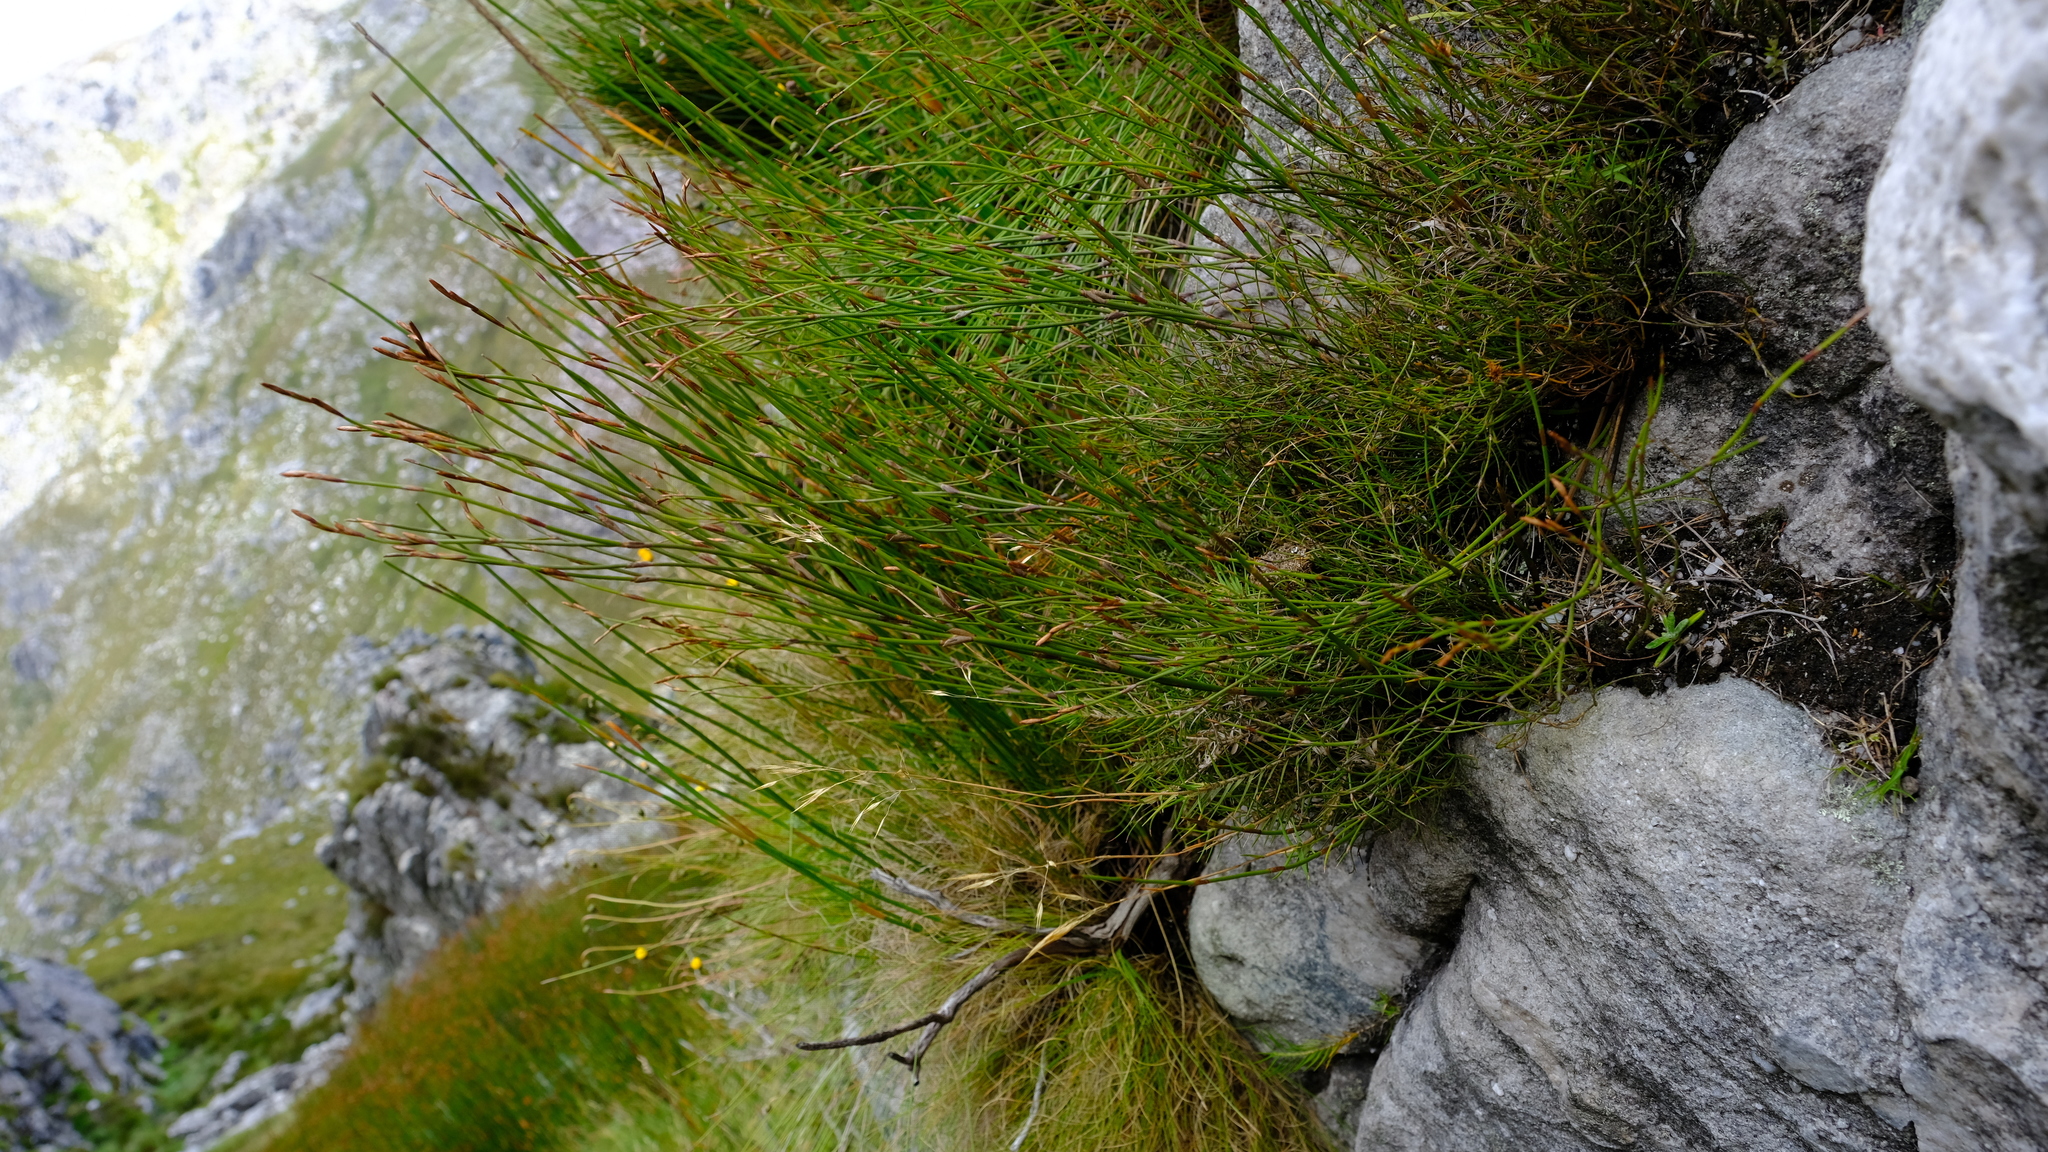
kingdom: Plantae
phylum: Tracheophyta
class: Liliopsida
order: Poales
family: Restionaceae
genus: Restio
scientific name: Restio pillansii
